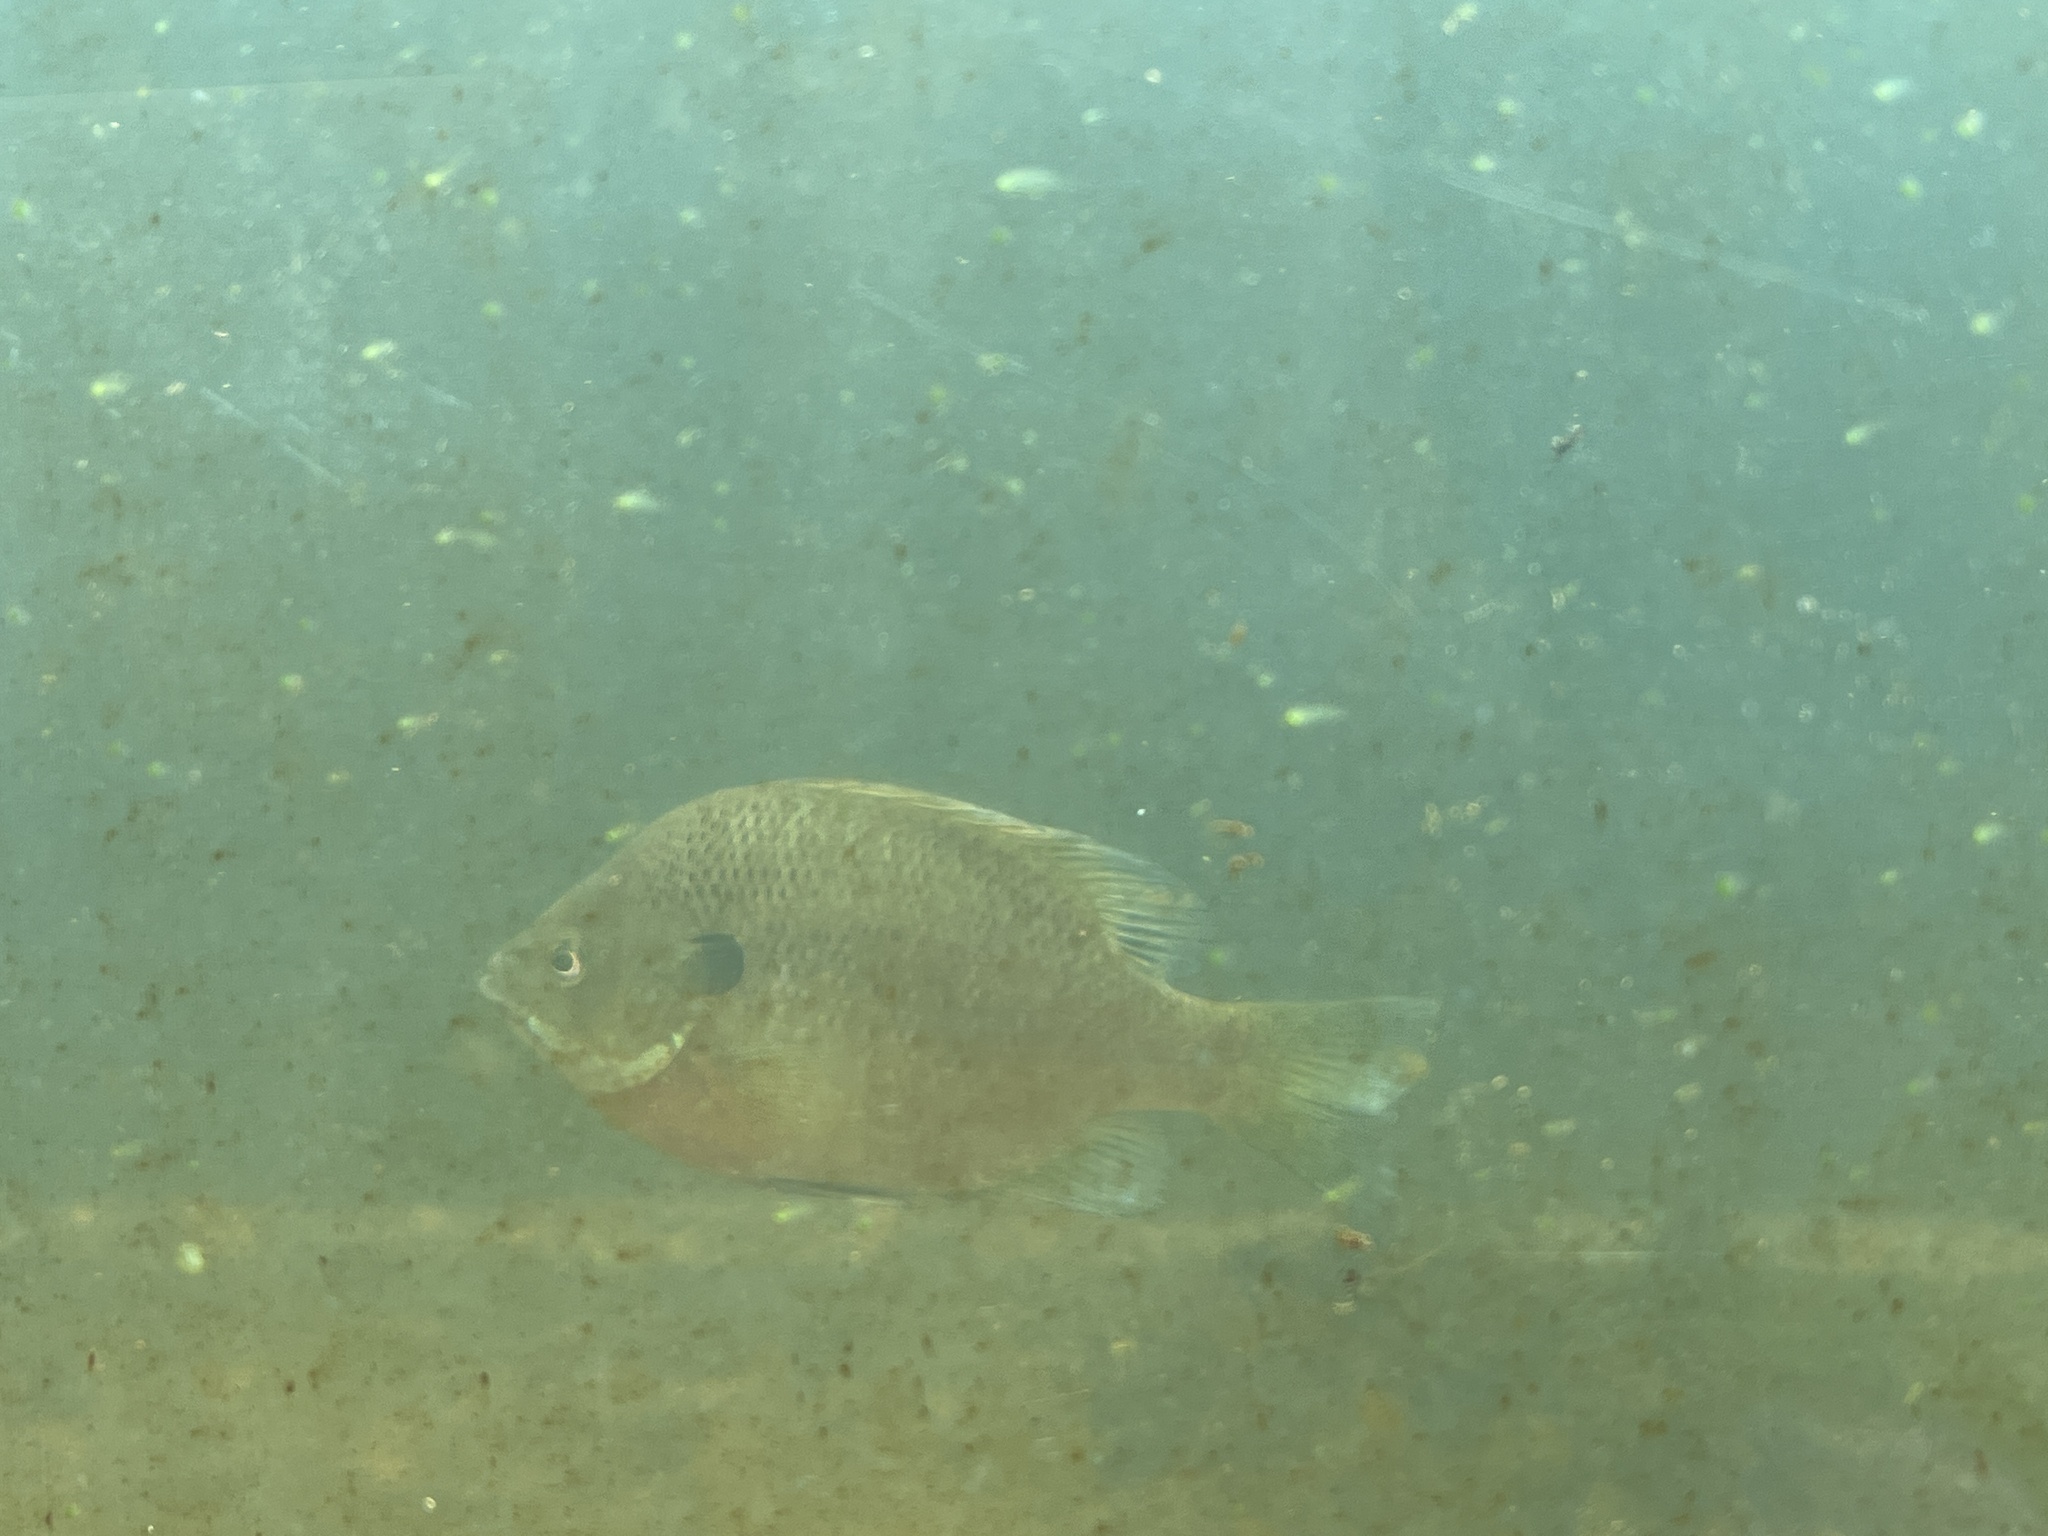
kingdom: Animalia
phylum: Chordata
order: Perciformes
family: Centrarchidae
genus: Lepomis
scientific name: Lepomis macrochirus
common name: Bluegill
